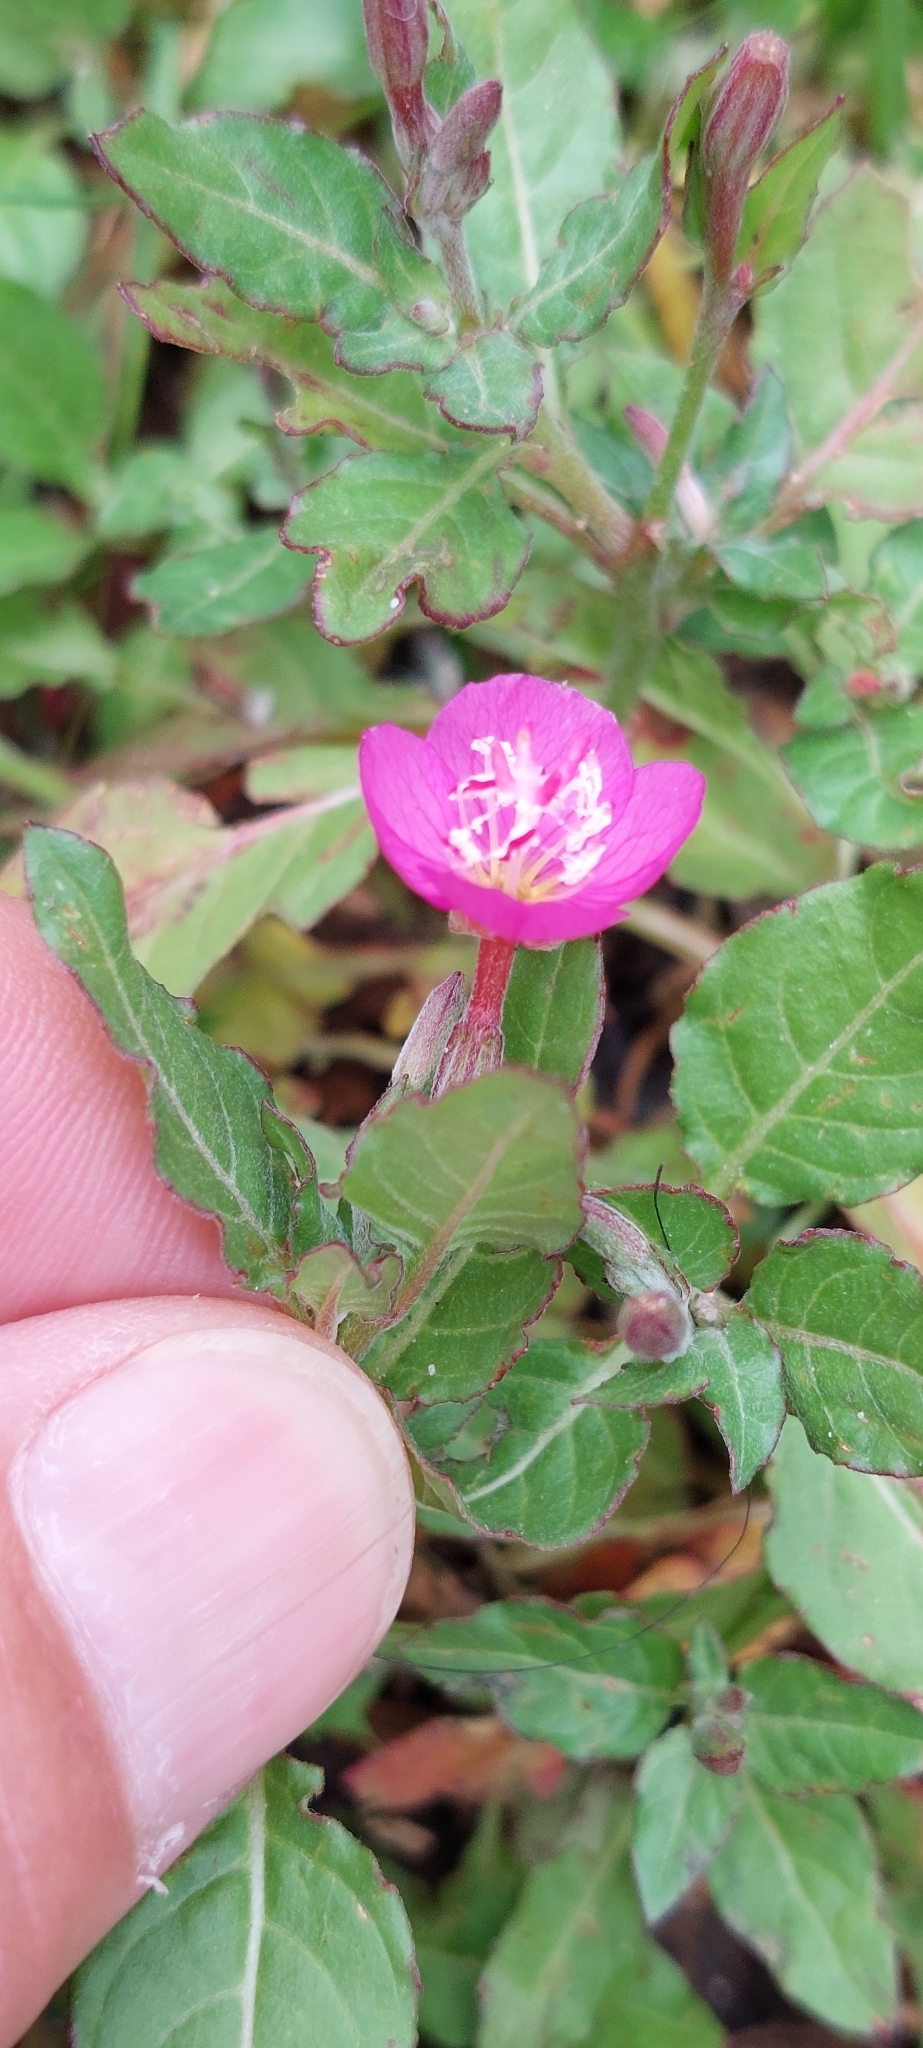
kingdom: Plantae
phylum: Tracheophyta
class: Magnoliopsida
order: Myrtales
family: Onagraceae
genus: Oenothera
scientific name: Oenothera rosea
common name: Rosy evening-primrose
